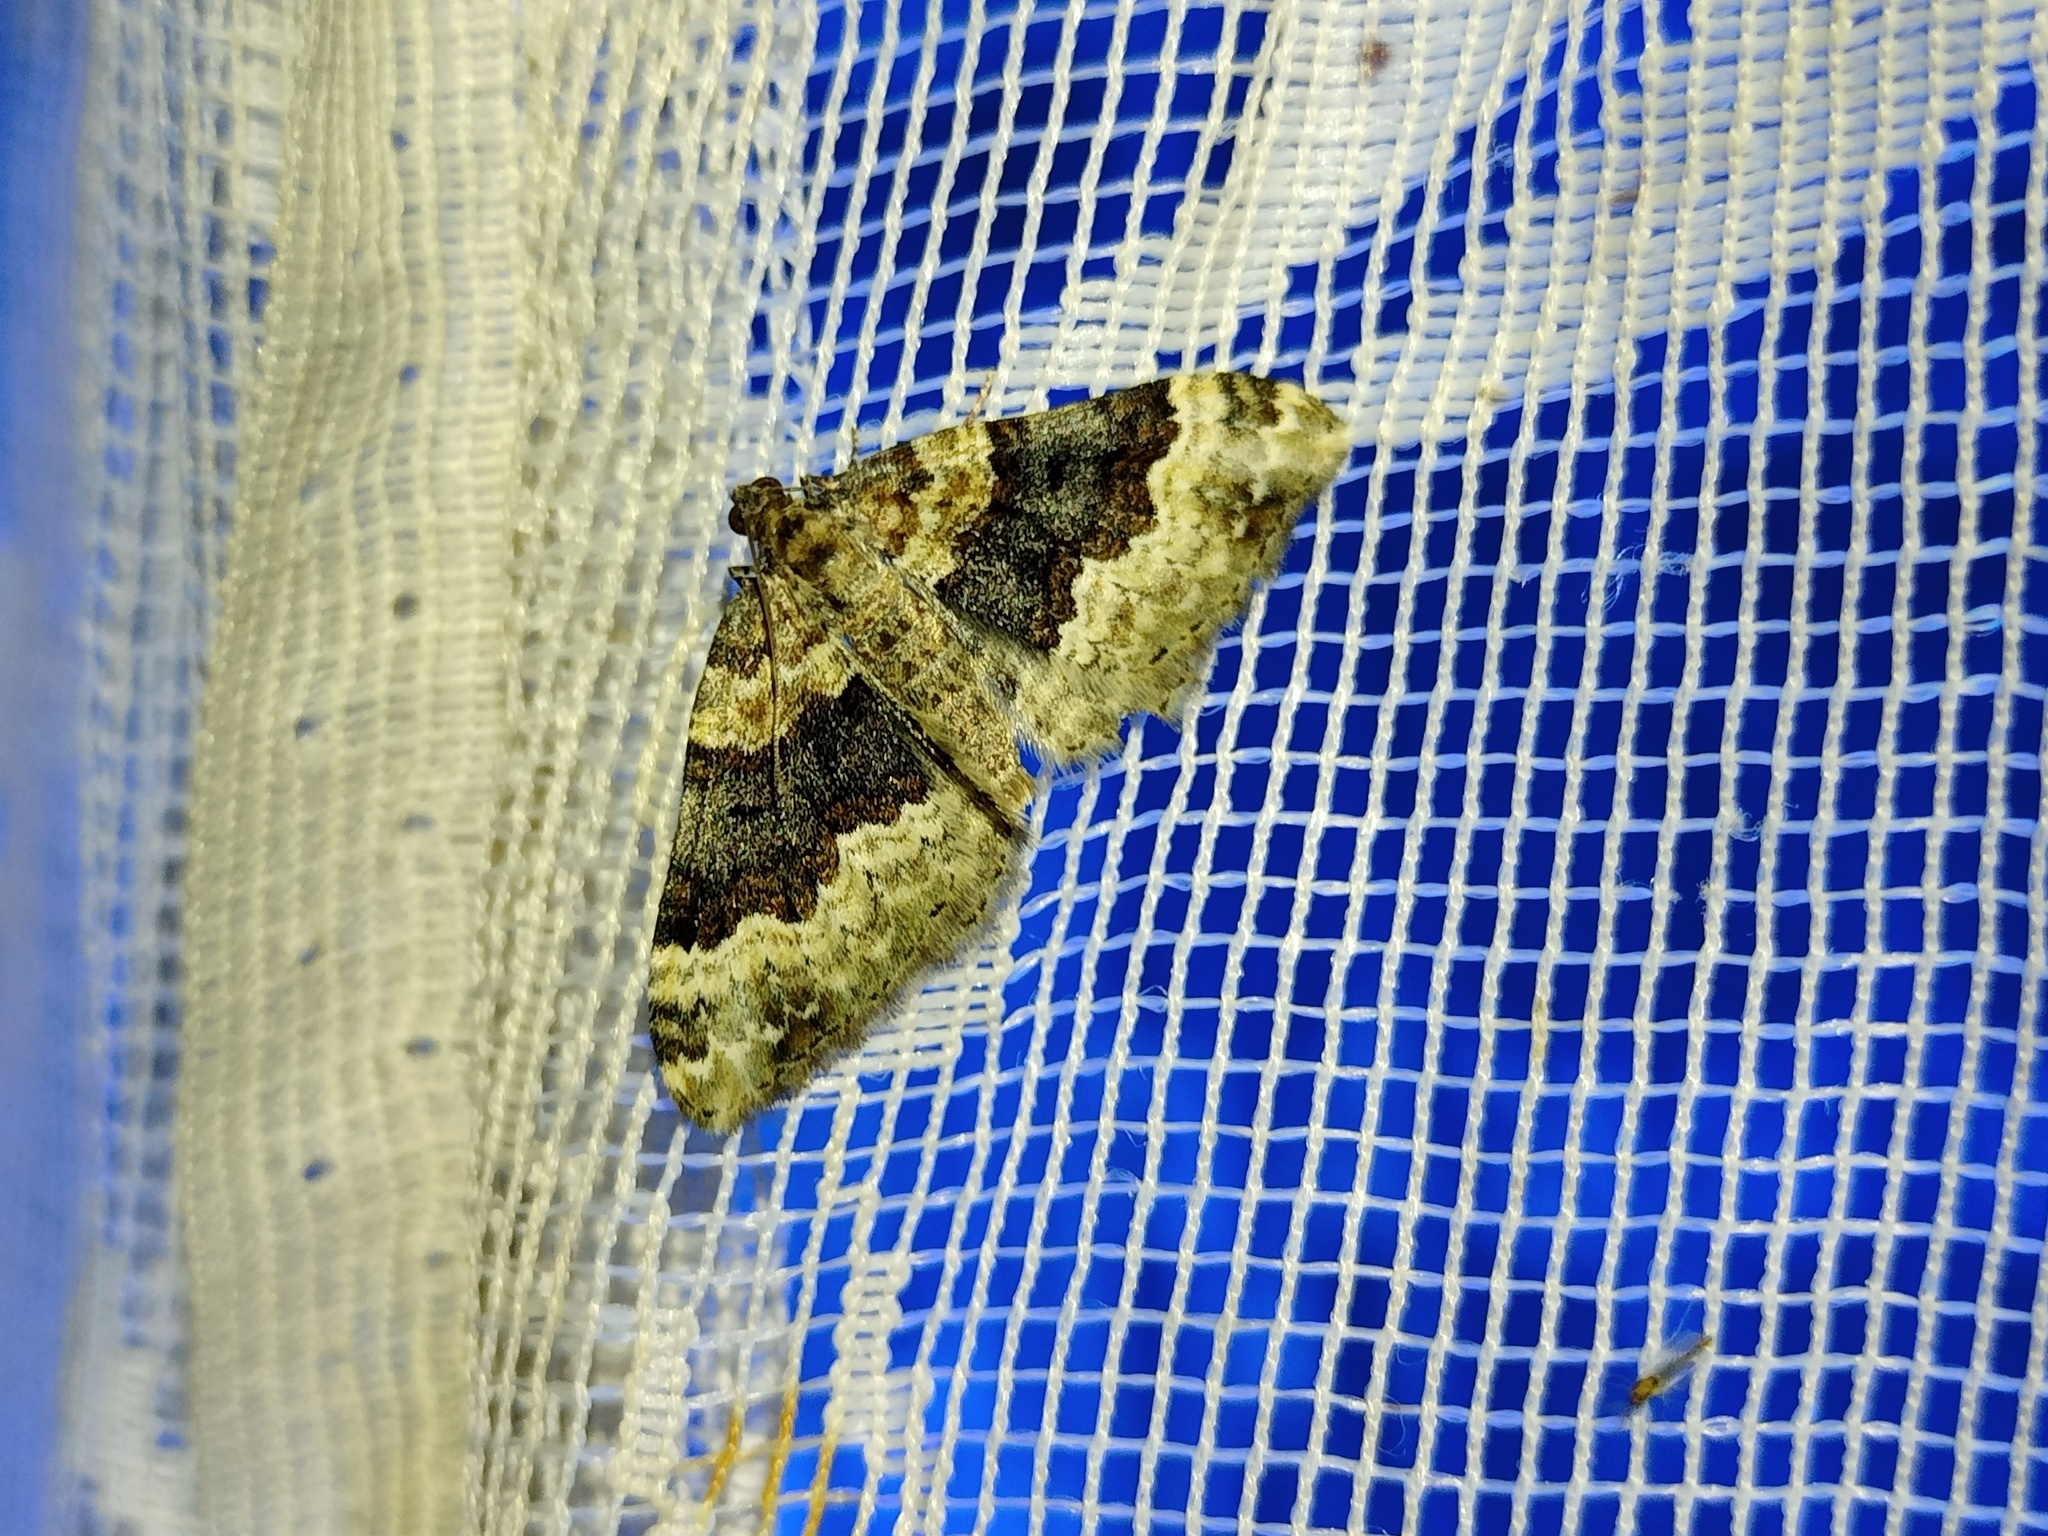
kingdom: Animalia
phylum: Arthropoda
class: Insecta
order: Lepidoptera
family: Geometridae
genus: Epirrhoe
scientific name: Epirrhoe galiata
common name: Galium carpet
